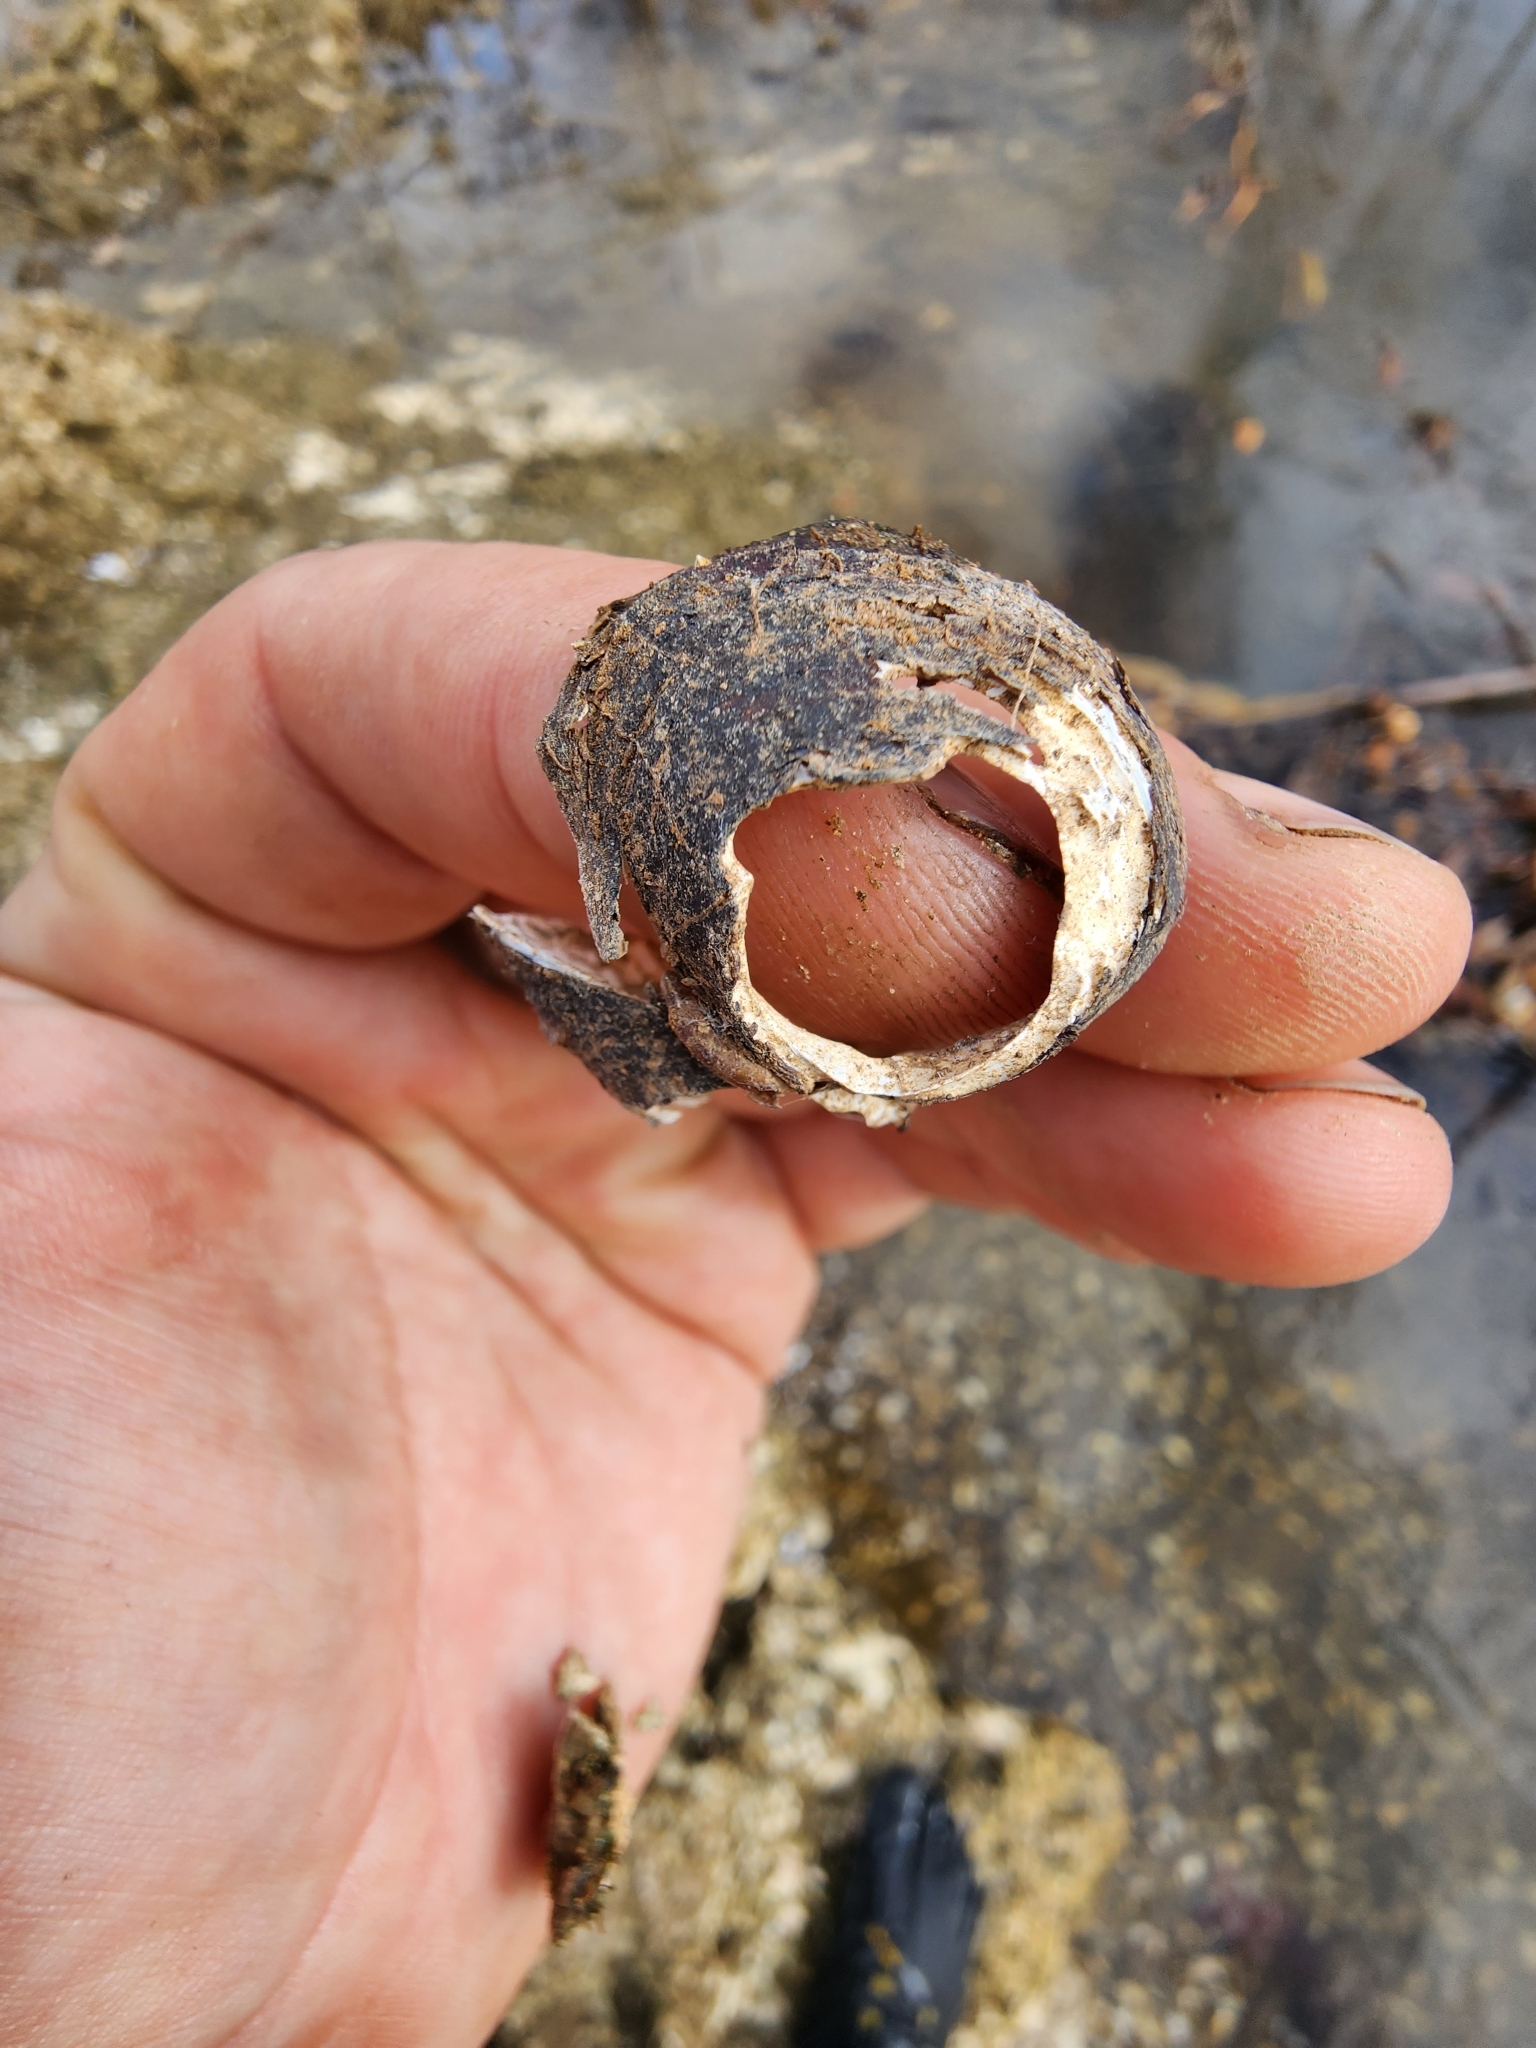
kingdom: Animalia
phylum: Mollusca
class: Bivalvia
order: Venerida
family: Cyrenidae
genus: Corbicula
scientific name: Corbicula fluminea
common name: Asian clam
